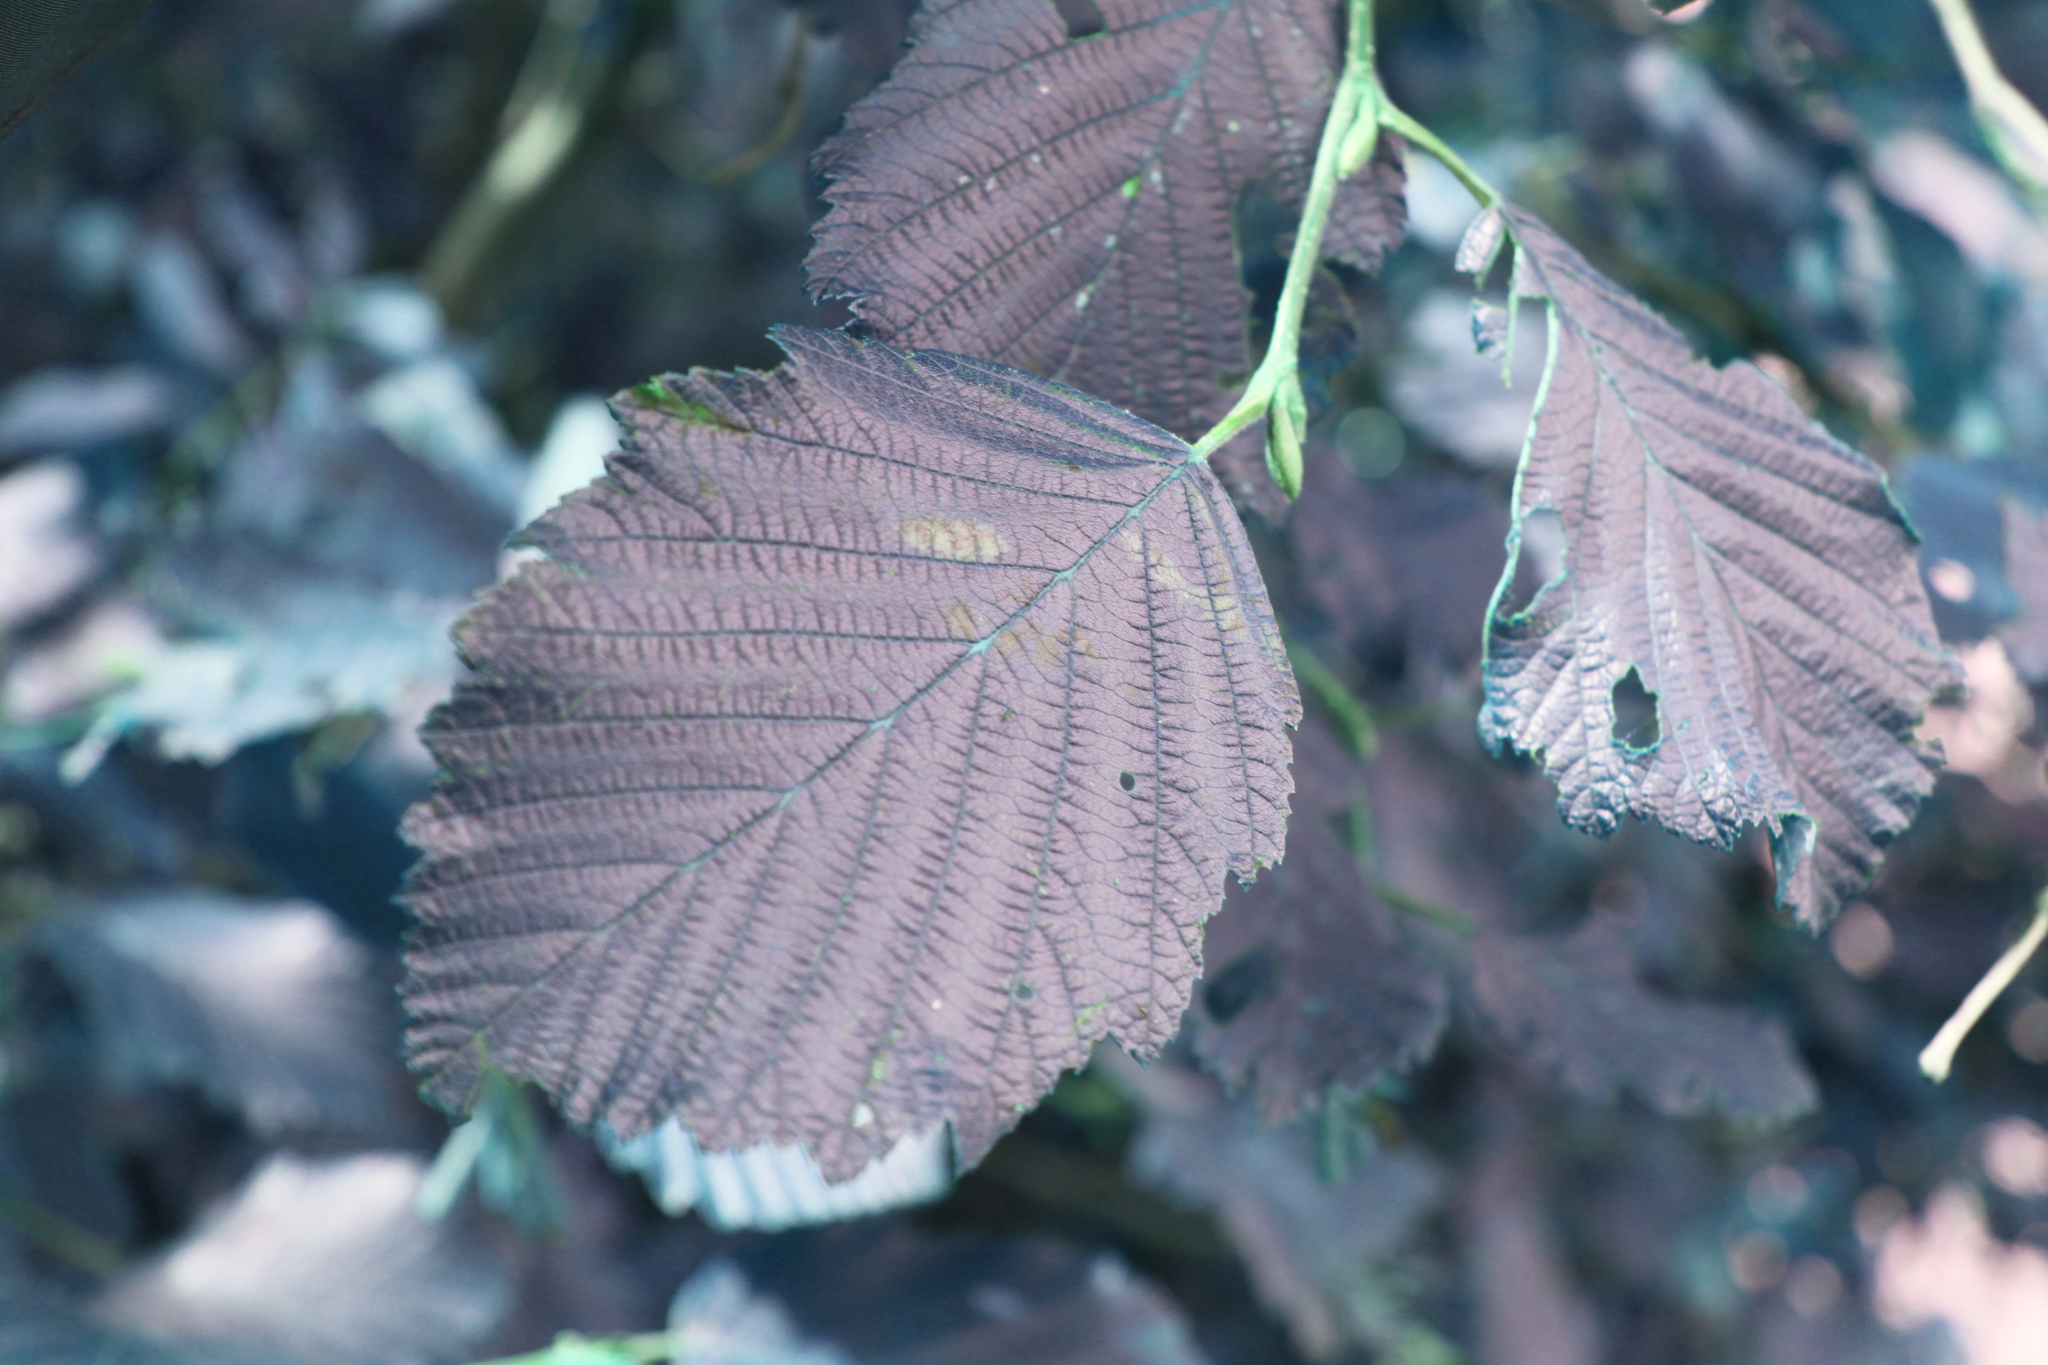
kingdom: Plantae
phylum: Tracheophyta
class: Magnoliopsida
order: Fagales
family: Betulaceae
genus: Alnus
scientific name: Alnus incana
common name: Grey alder
